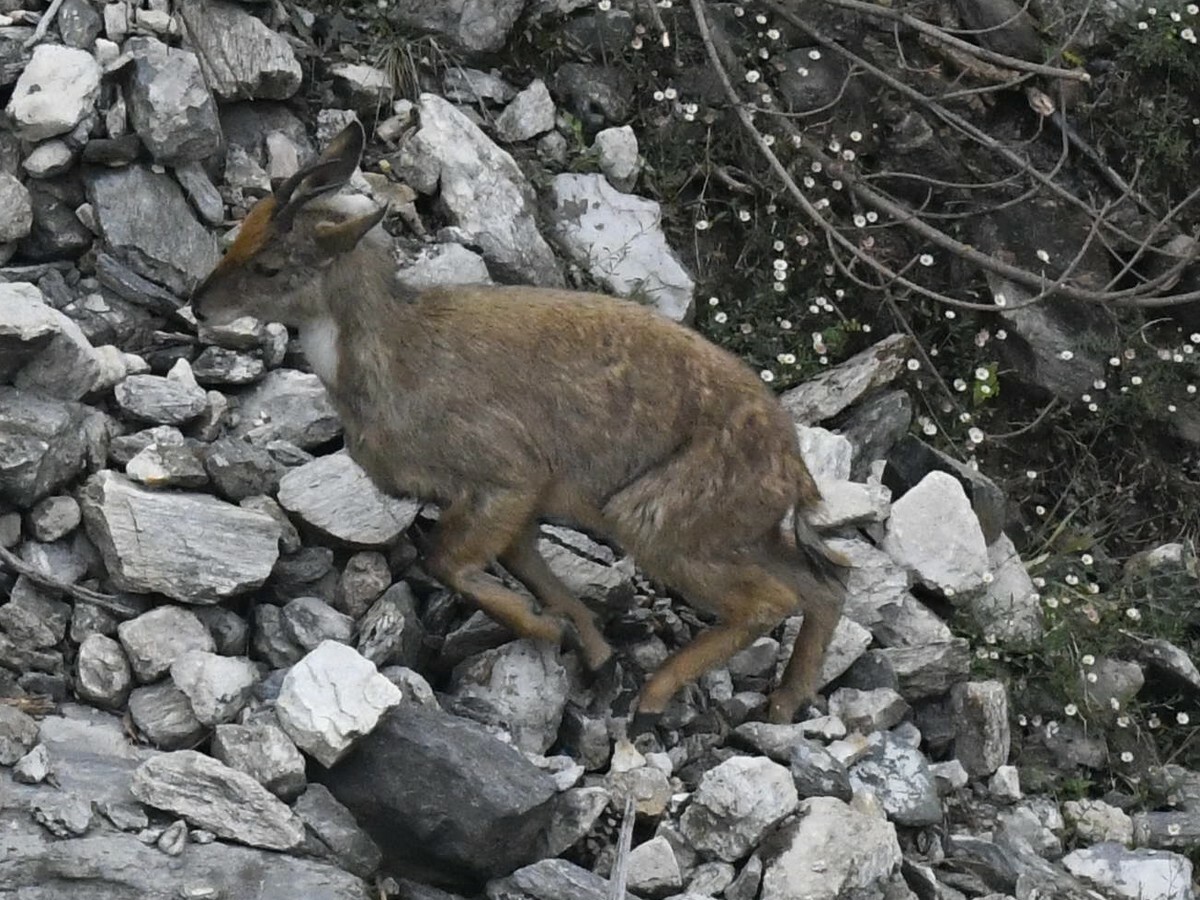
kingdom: Animalia
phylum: Chordata
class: Mammalia
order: Artiodactyla
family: Bovidae
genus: Naemorhedus
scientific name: Naemorhedus goral
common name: Goral
